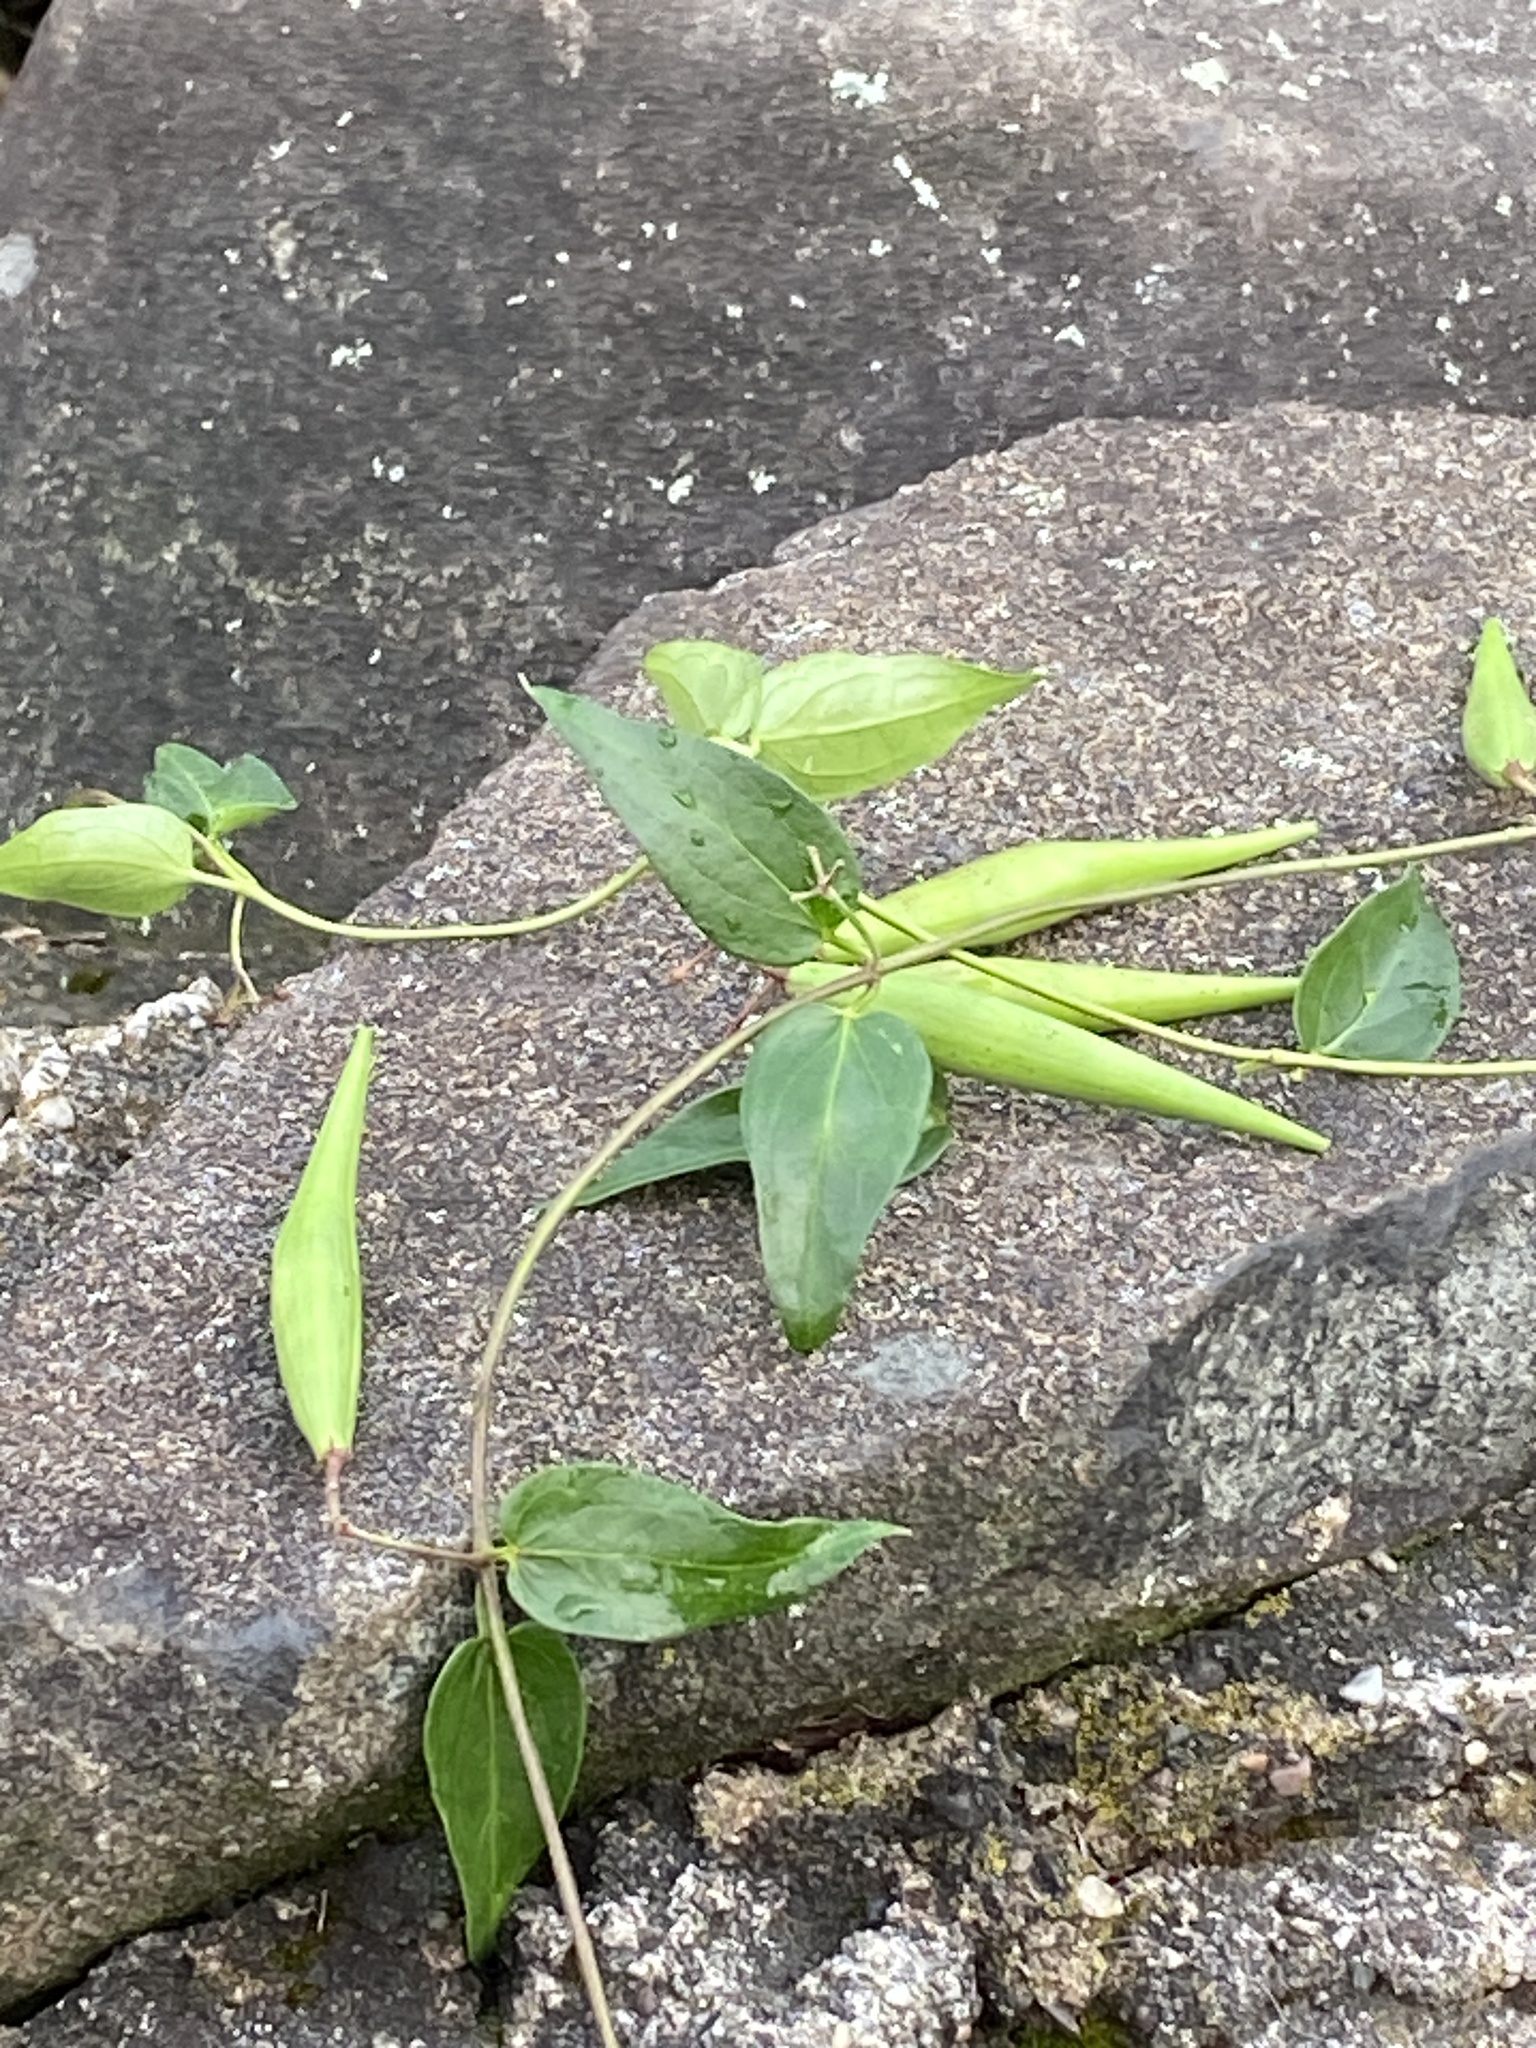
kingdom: Plantae
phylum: Tracheophyta
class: Magnoliopsida
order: Gentianales
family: Apocynaceae
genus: Vincetoxicum
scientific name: Vincetoxicum nigrum
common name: Black swallow-wort
